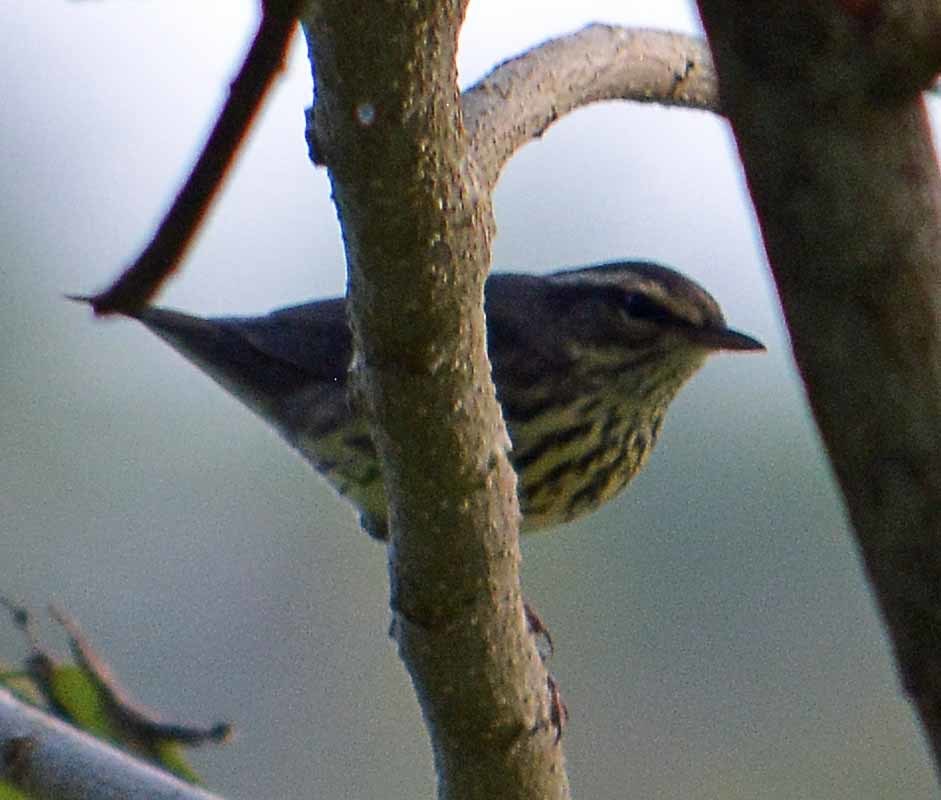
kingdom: Animalia
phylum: Chordata
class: Aves
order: Passeriformes
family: Parulidae
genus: Parkesia
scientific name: Parkesia noveboracensis
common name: Northern waterthrush
